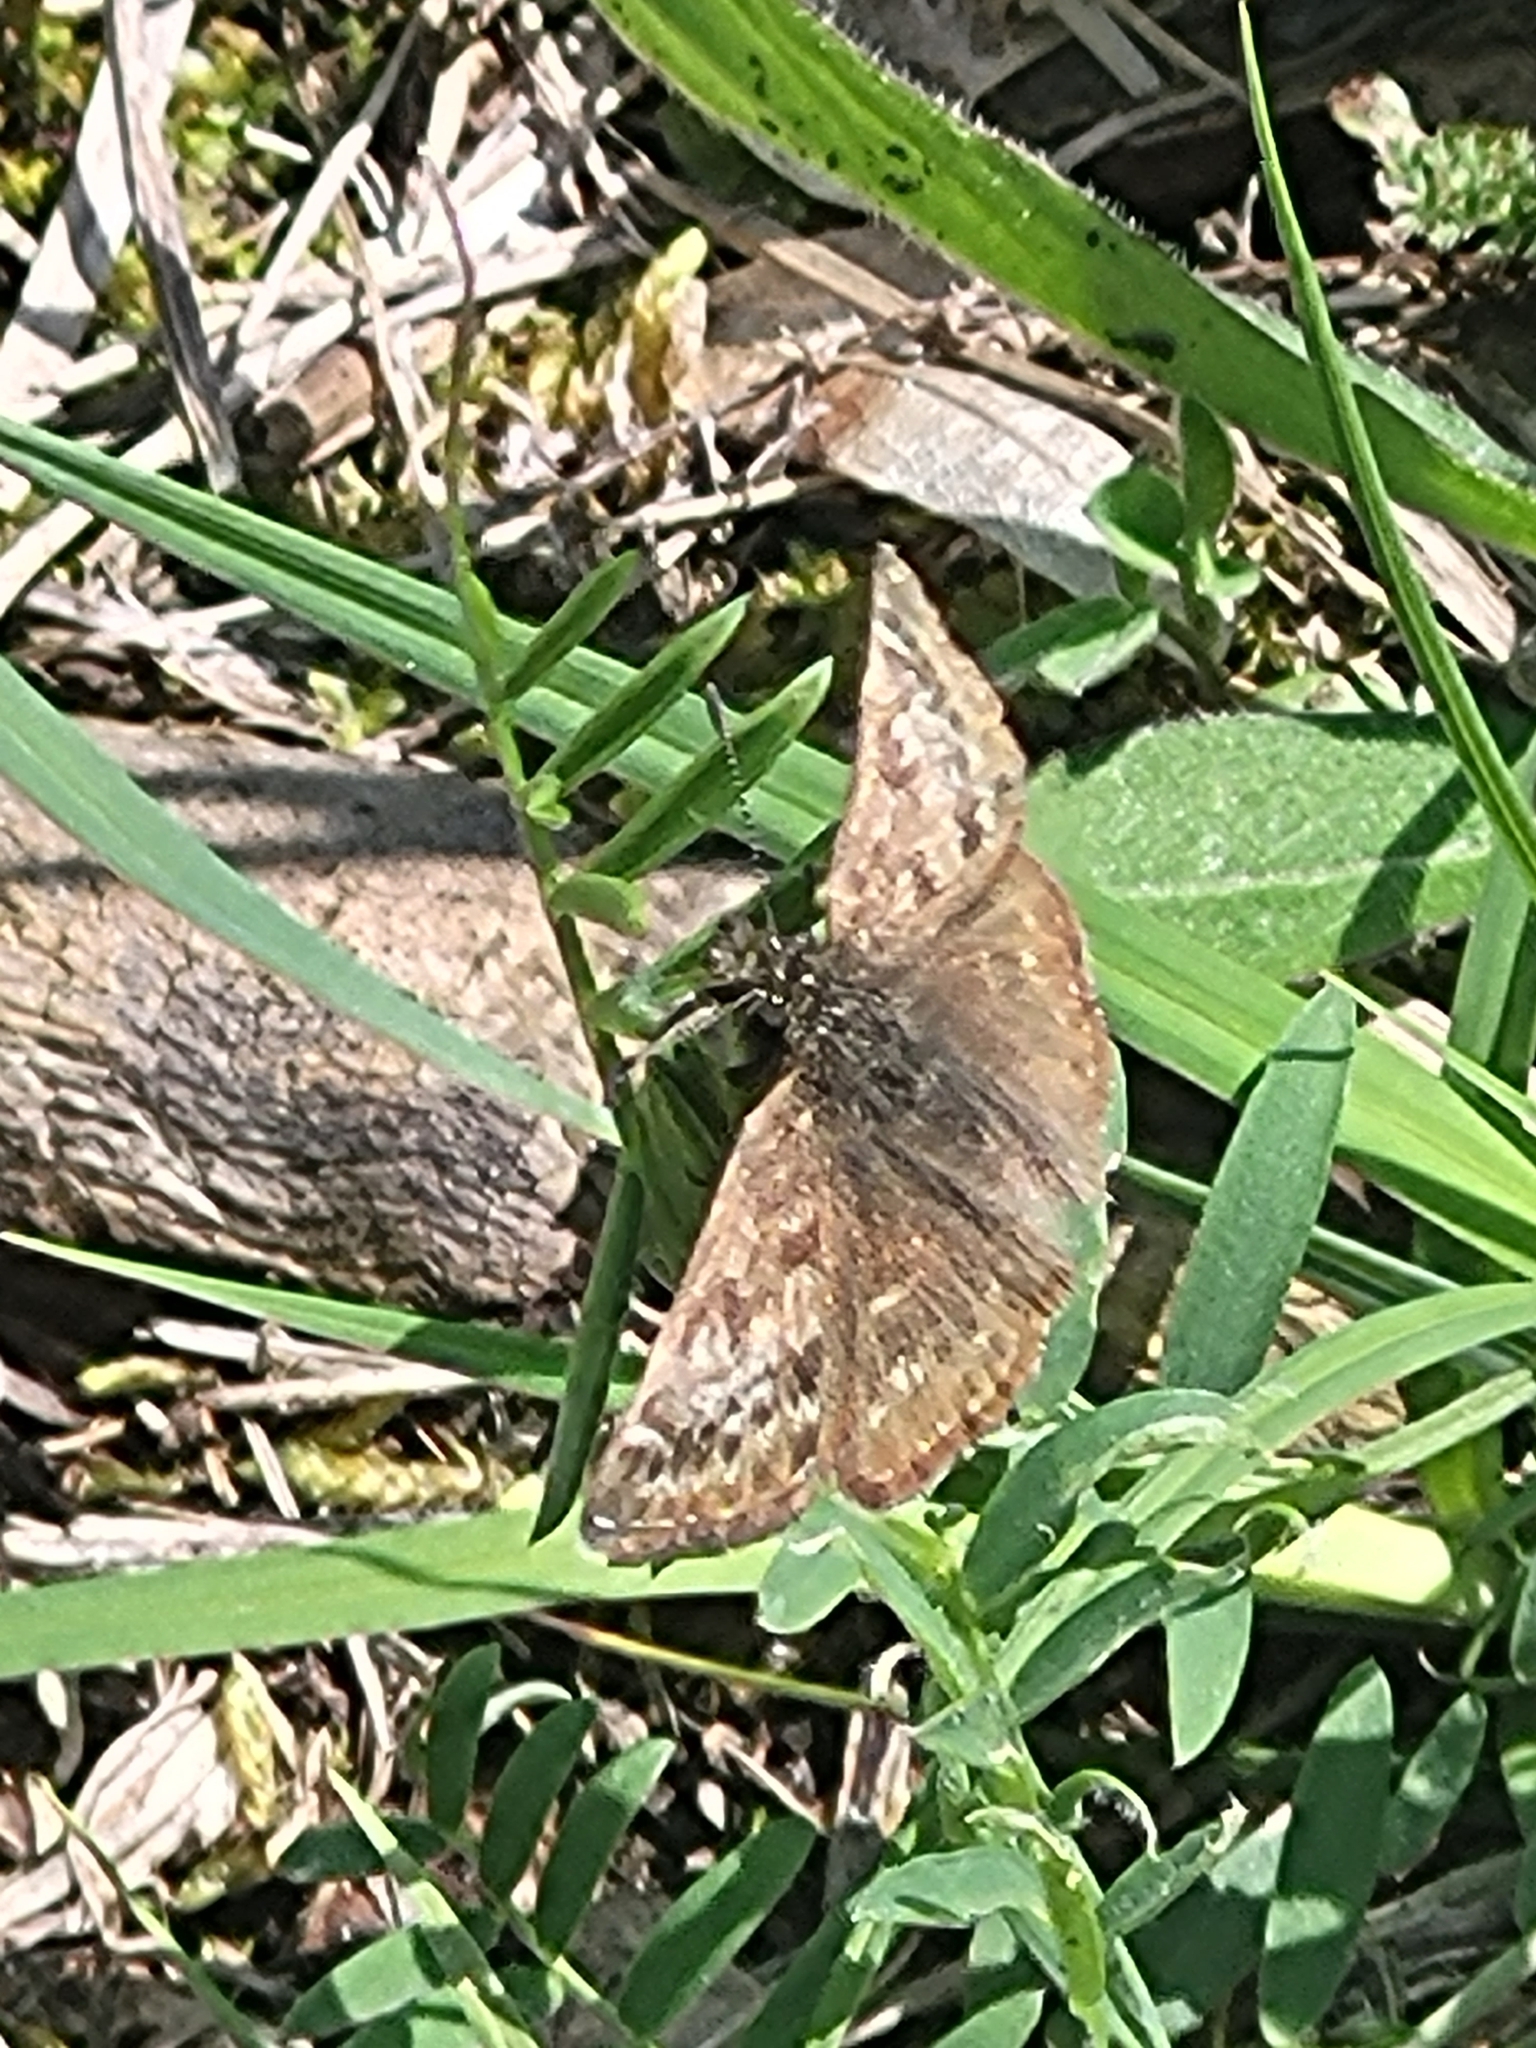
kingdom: Animalia
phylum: Arthropoda
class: Insecta
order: Lepidoptera
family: Hesperiidae
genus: Erynnis
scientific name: Erynnis tages
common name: Dingy skipper
